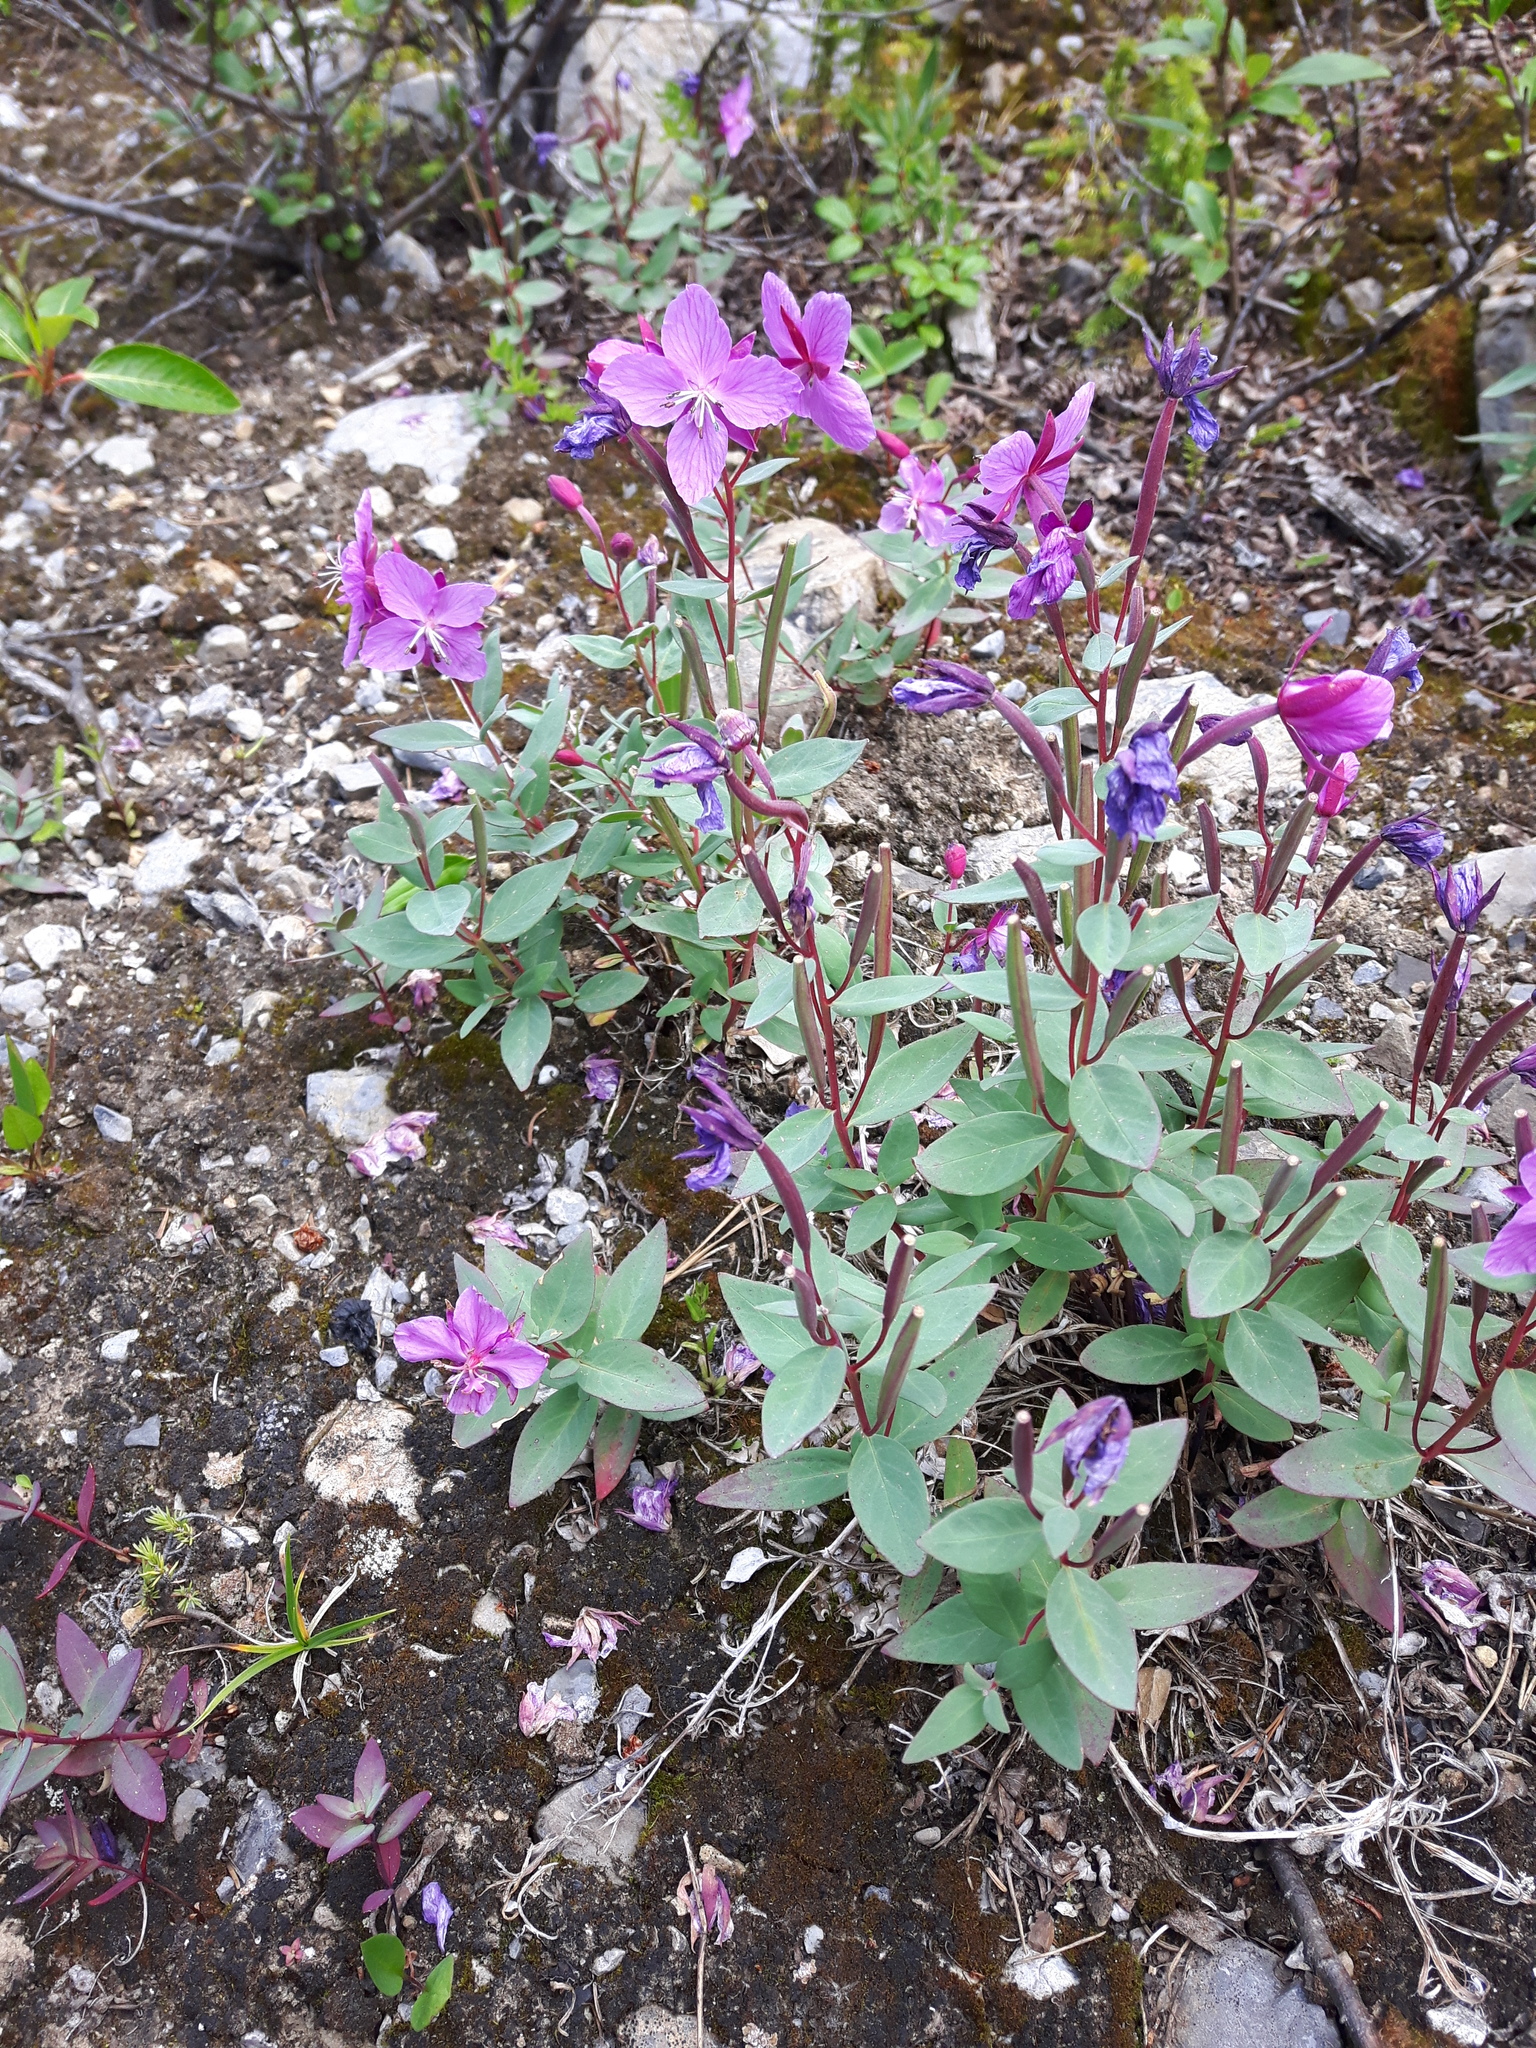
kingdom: Plantae
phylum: Tracheophyta
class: Magnoliopsida
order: Myrtales
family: Onagraceae
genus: Chamaenerion
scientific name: Chamaenerion latifolium
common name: Dwarf fireweed
